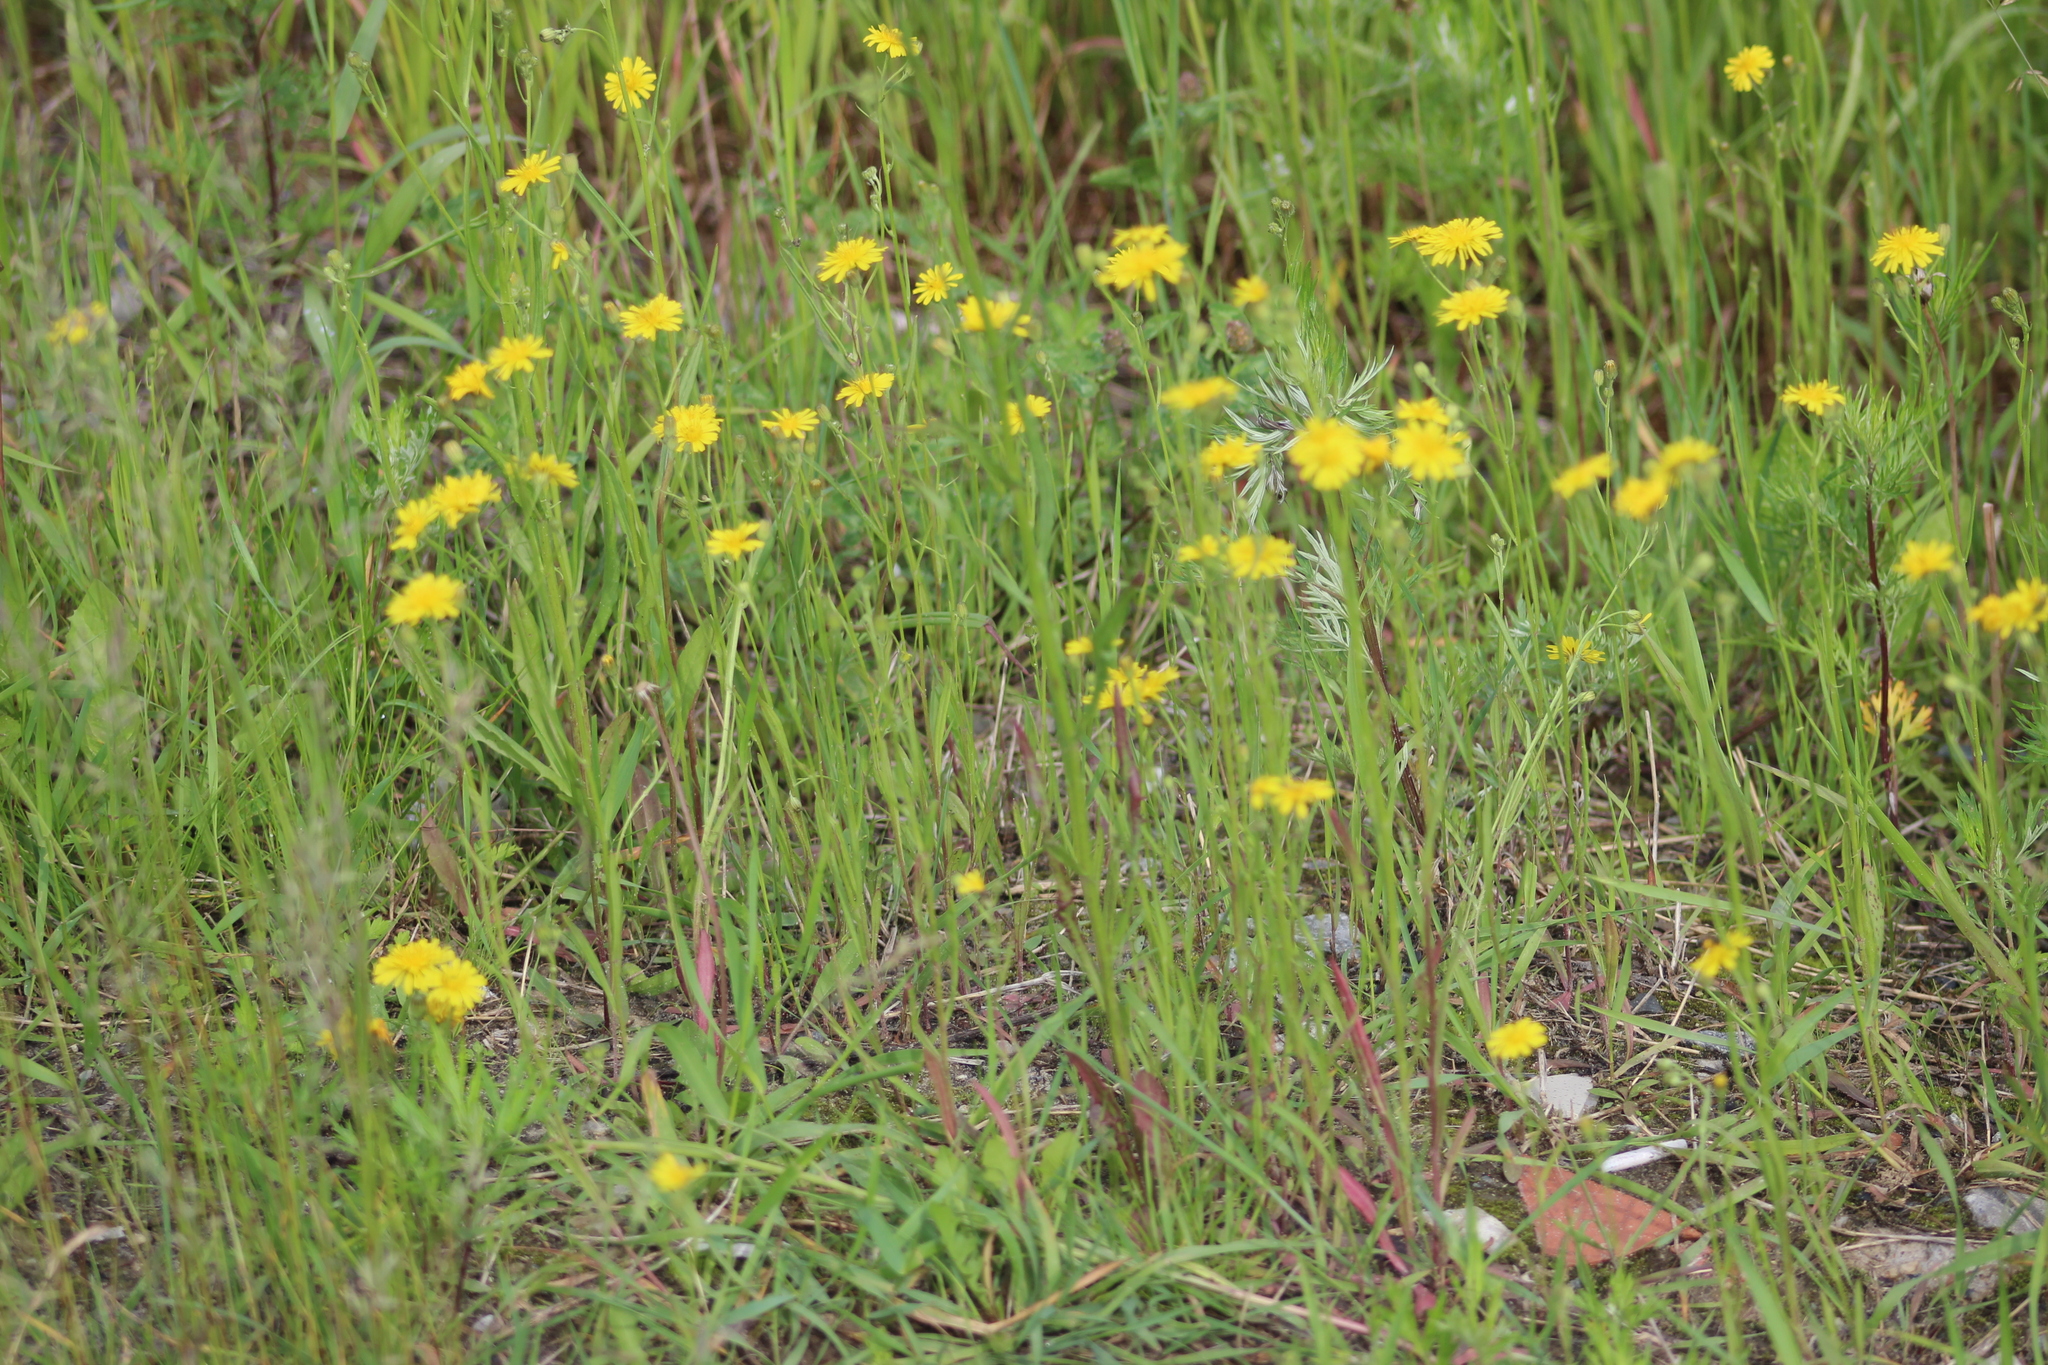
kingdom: Plantae
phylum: Tracheophyta
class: Magnoliopsida
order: Asterales
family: Asteraceae
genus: Crepis
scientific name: Crepis tectorum
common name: Narrow-leaved hawk's-beard
